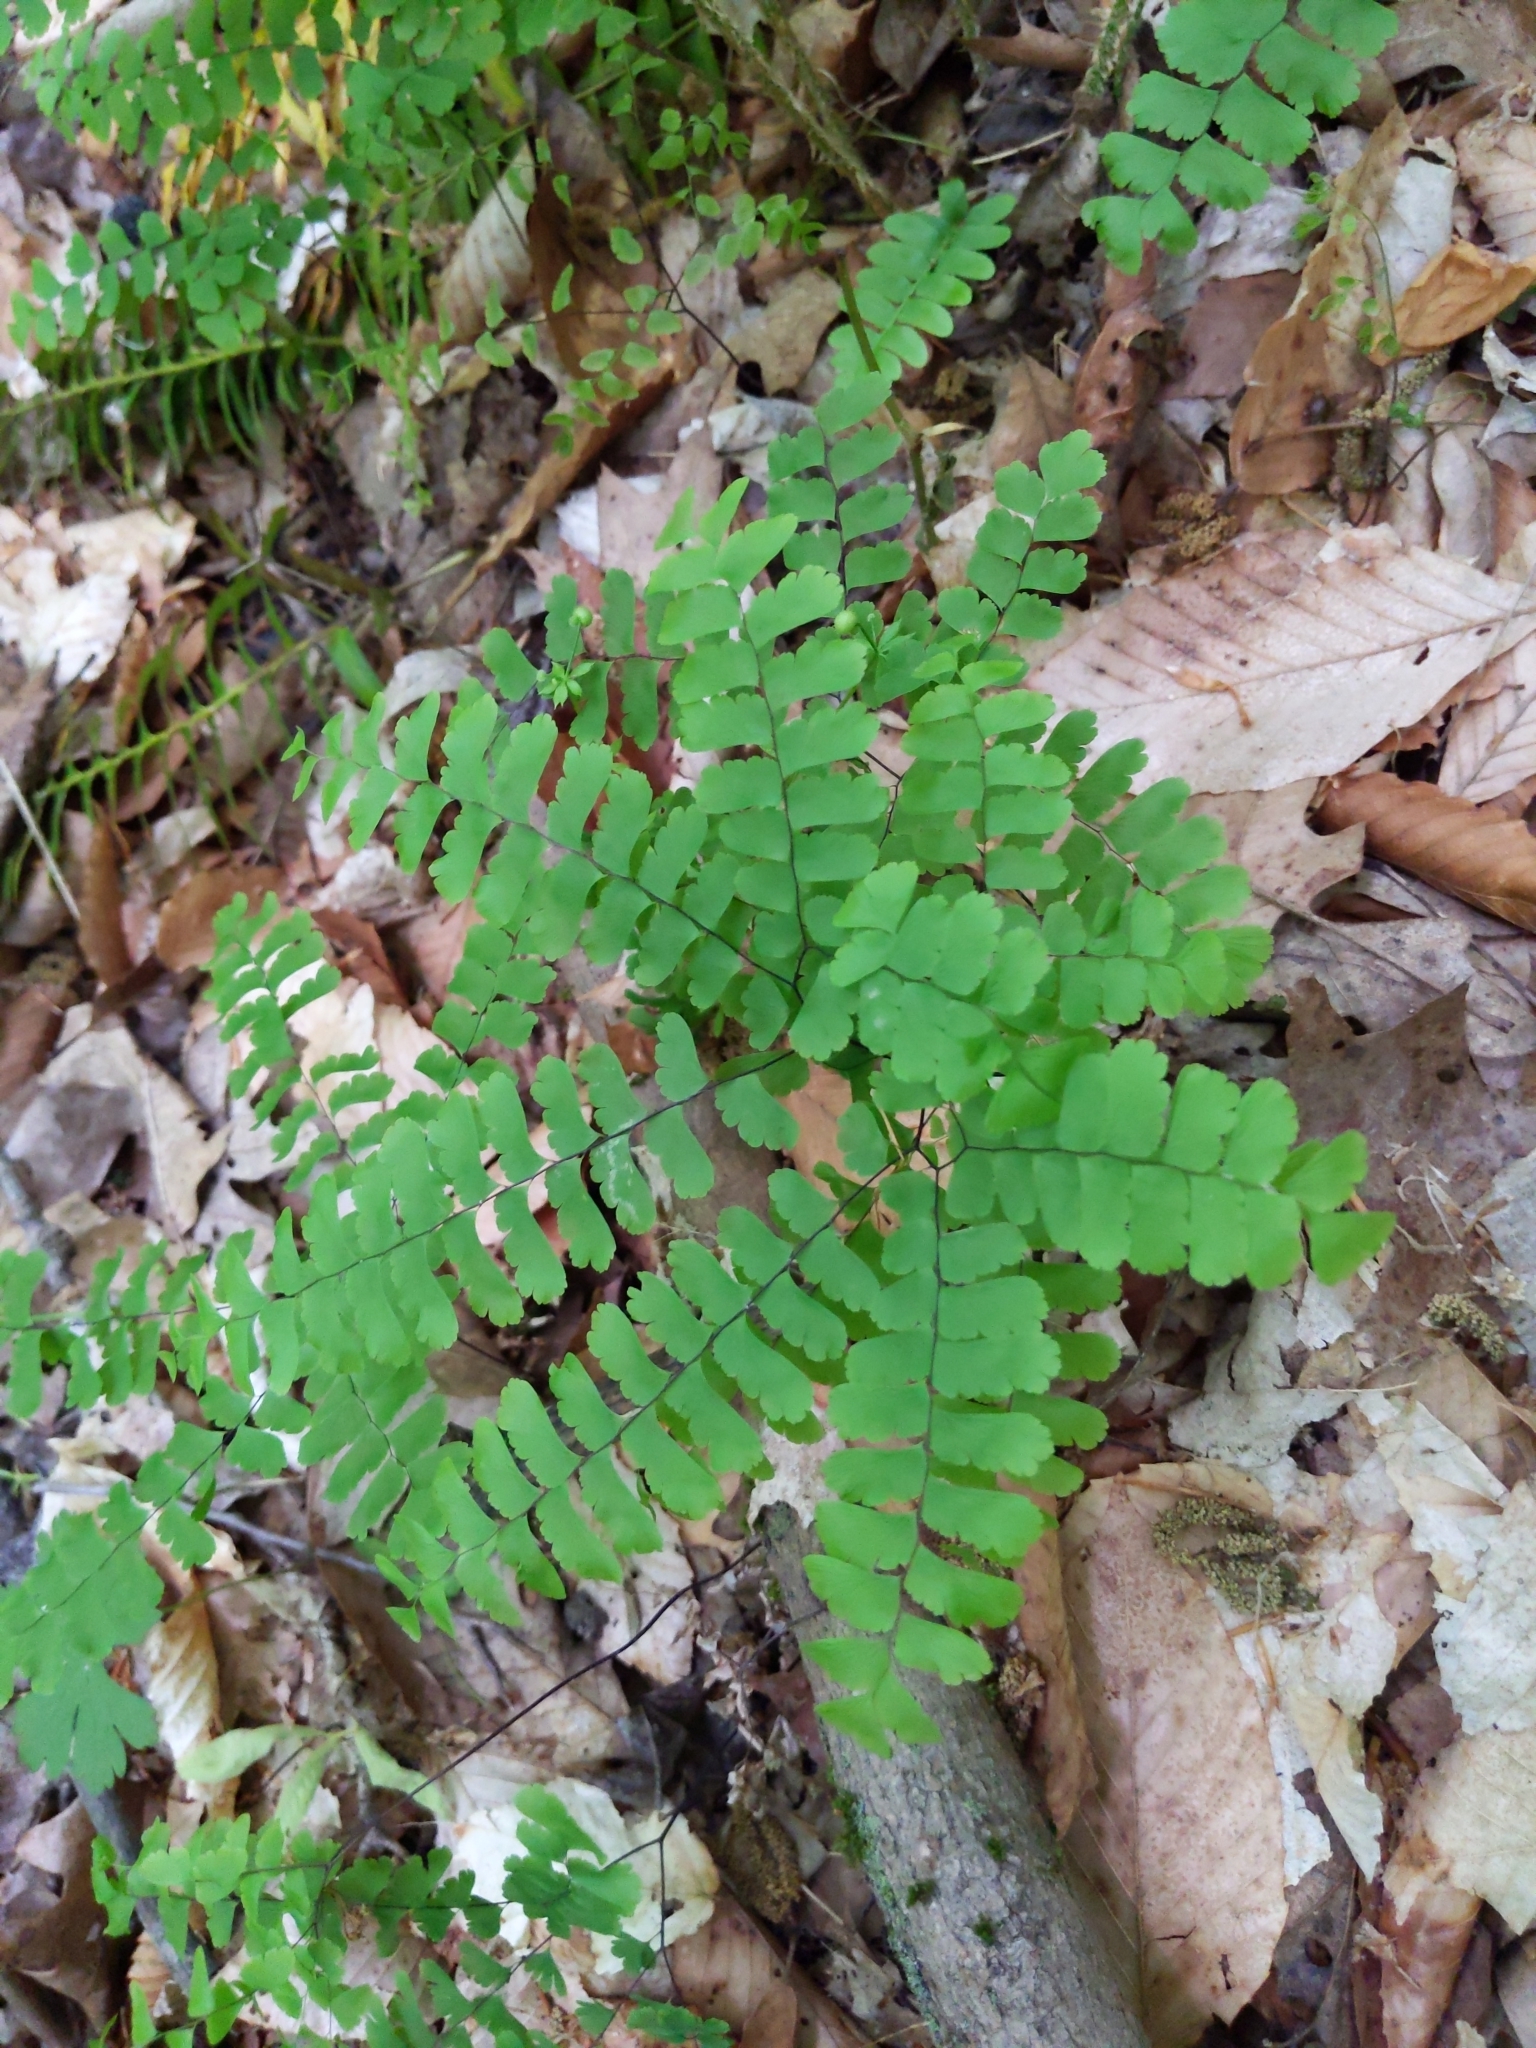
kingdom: Plantae
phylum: Tracheophyta
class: Polypodiopsida
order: Polypodiales
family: Pteridaceae
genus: Adiantum
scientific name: Adiantum pedatum
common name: Five-finger fern
